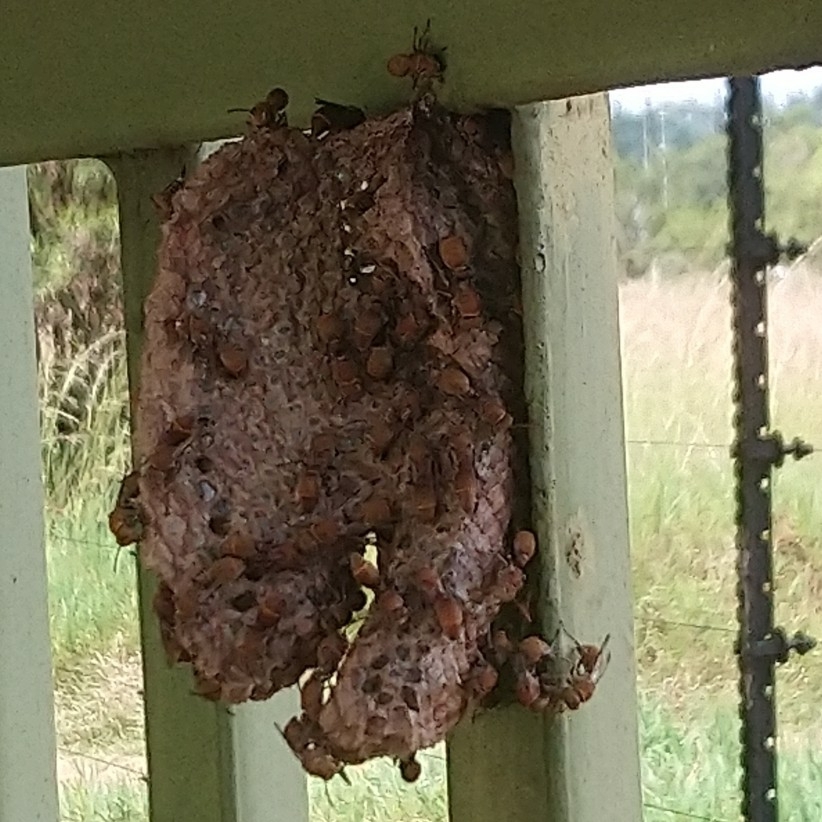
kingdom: Animalia
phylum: Arthropoda
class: Insecta
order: Hymenoptera
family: Vespidae
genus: Ropalidia
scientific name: Ropalidia distigma
